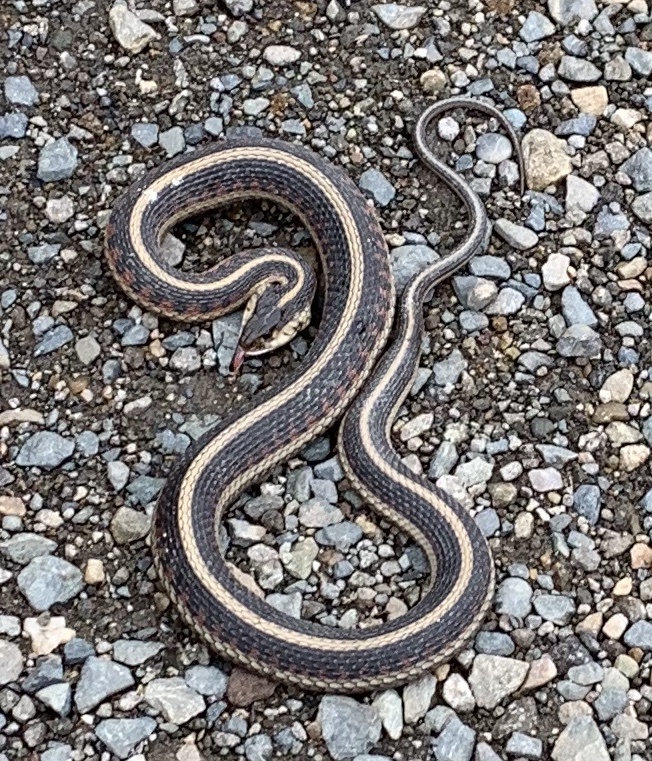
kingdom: Animalia
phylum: Chordata
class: Squamata
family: Colubridae
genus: Thamnophis
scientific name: Thamnophis sirtalis
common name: Common garter snake
